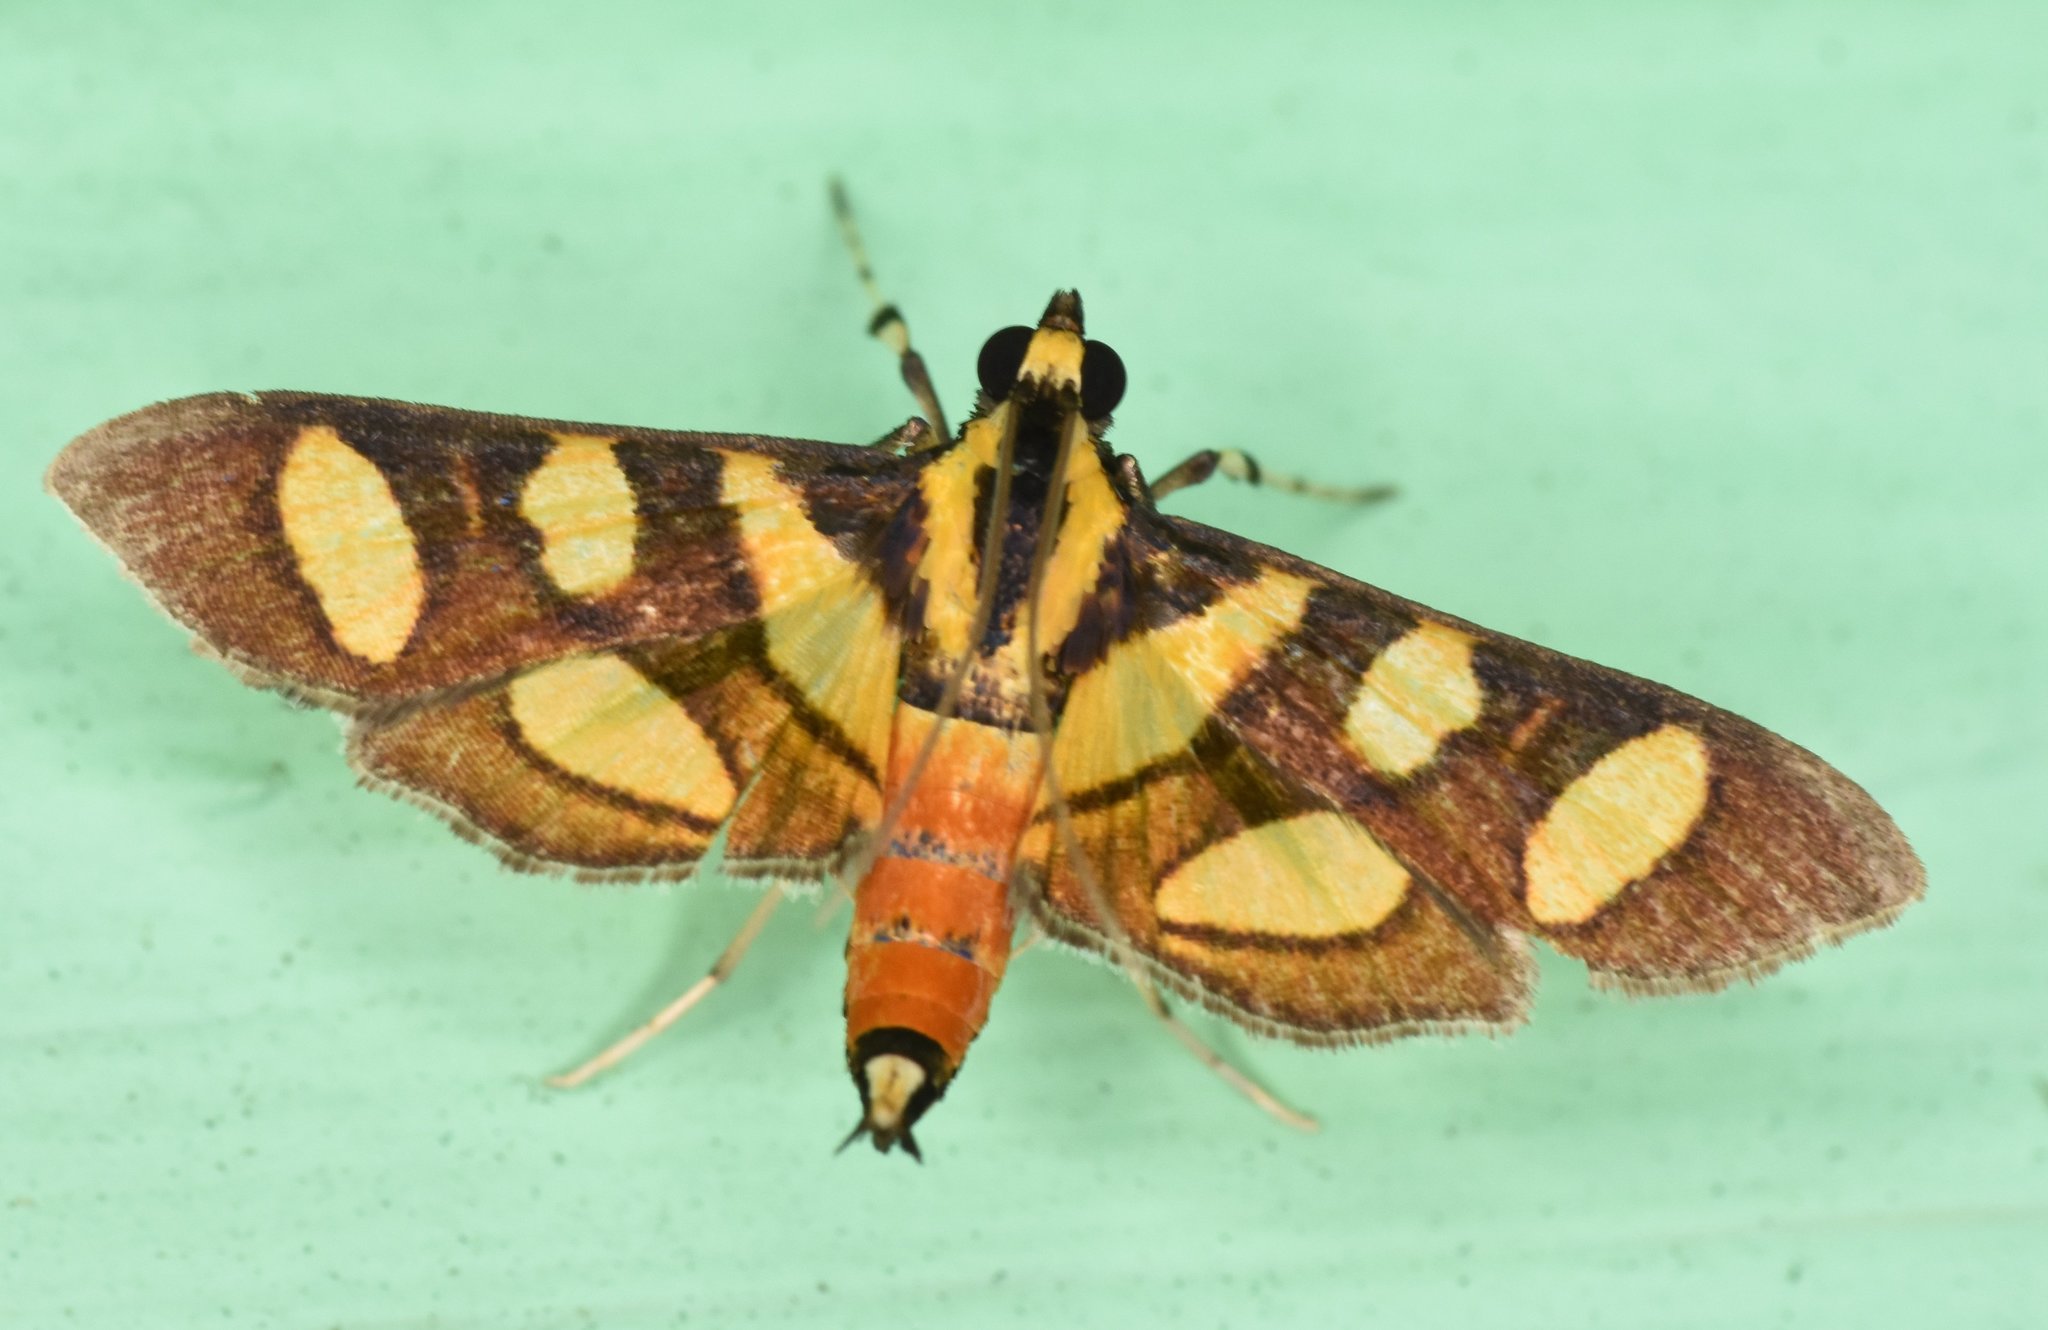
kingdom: Animalia
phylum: Arthropoda
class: Insecta
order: Lepidoptera
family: Crambidae
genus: Syngamia
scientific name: Syngamia florella
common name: Orange-spotted flower moth
